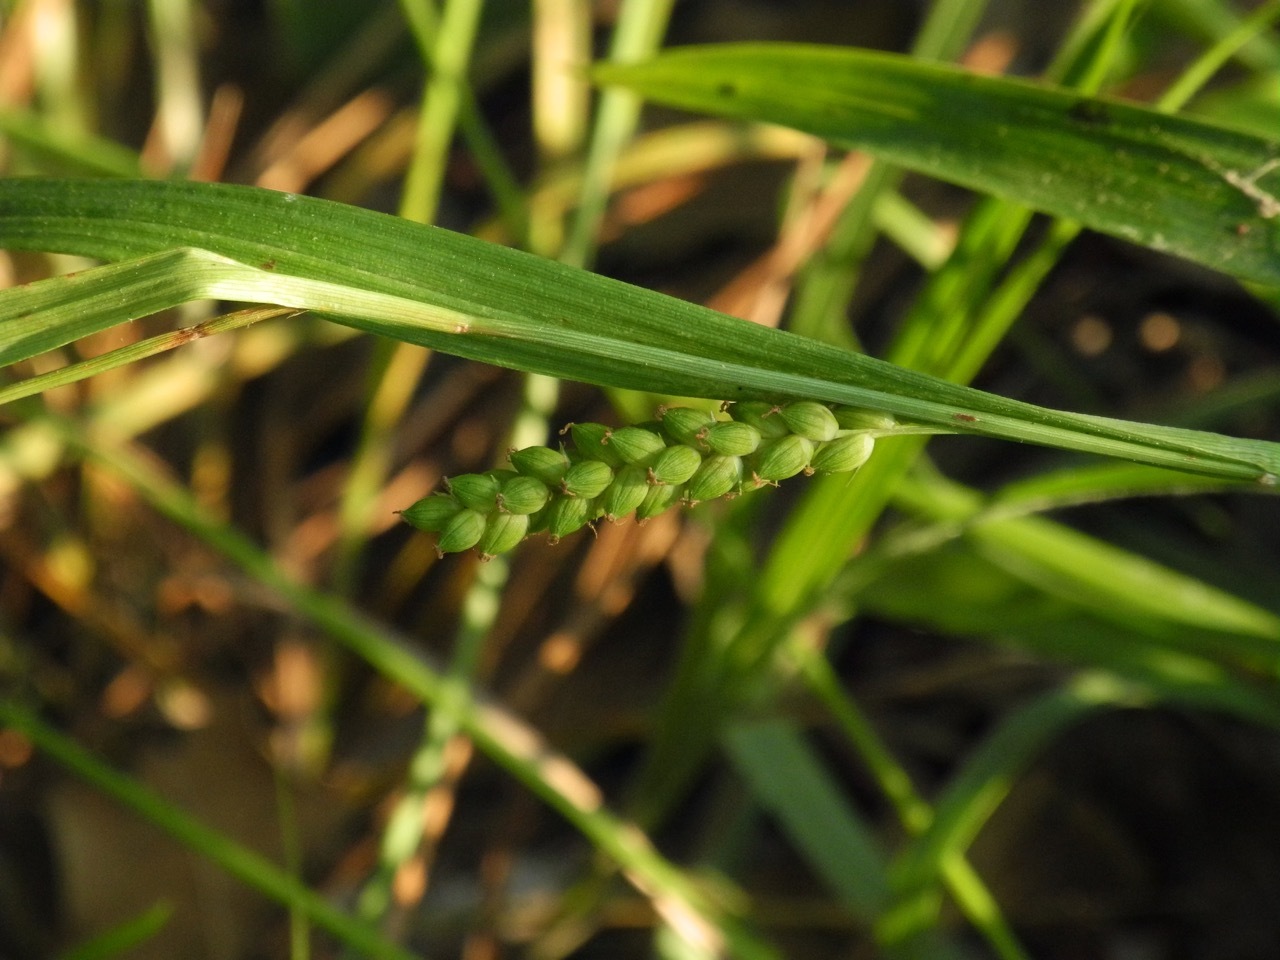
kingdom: Plantae
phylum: Tracheophyta
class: Liliopsida
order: Poales
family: Cyperaceae
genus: Carex
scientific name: Carex flaccosperma
